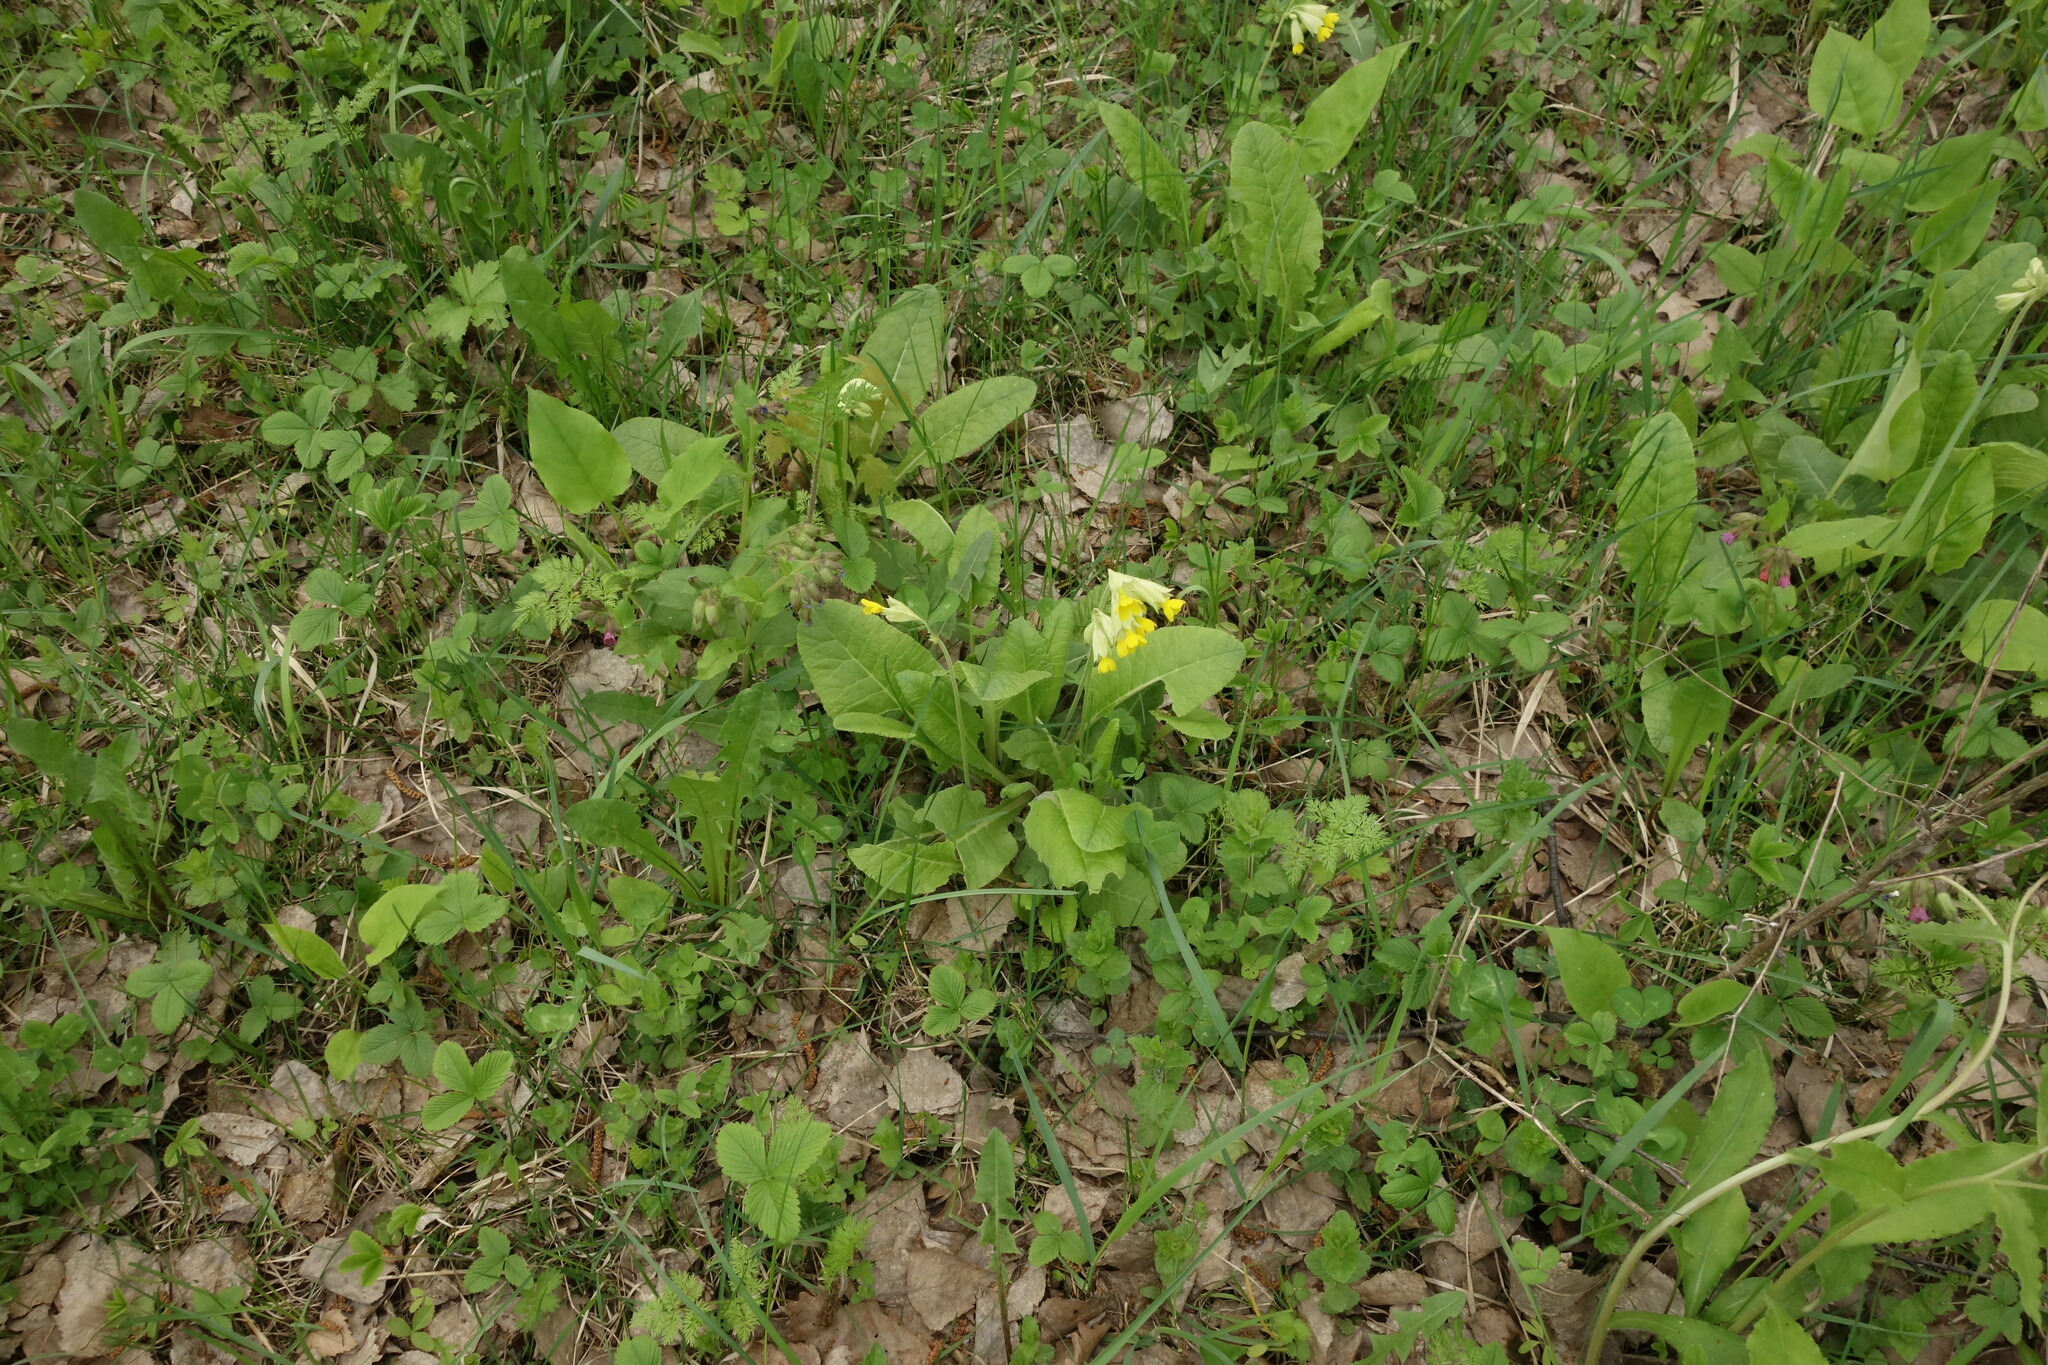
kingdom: Plantae
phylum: Tracheophyta
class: Magnoliopsida
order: Ericales
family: Primulaceae
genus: Primula
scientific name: Primula veris
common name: Cowslip
